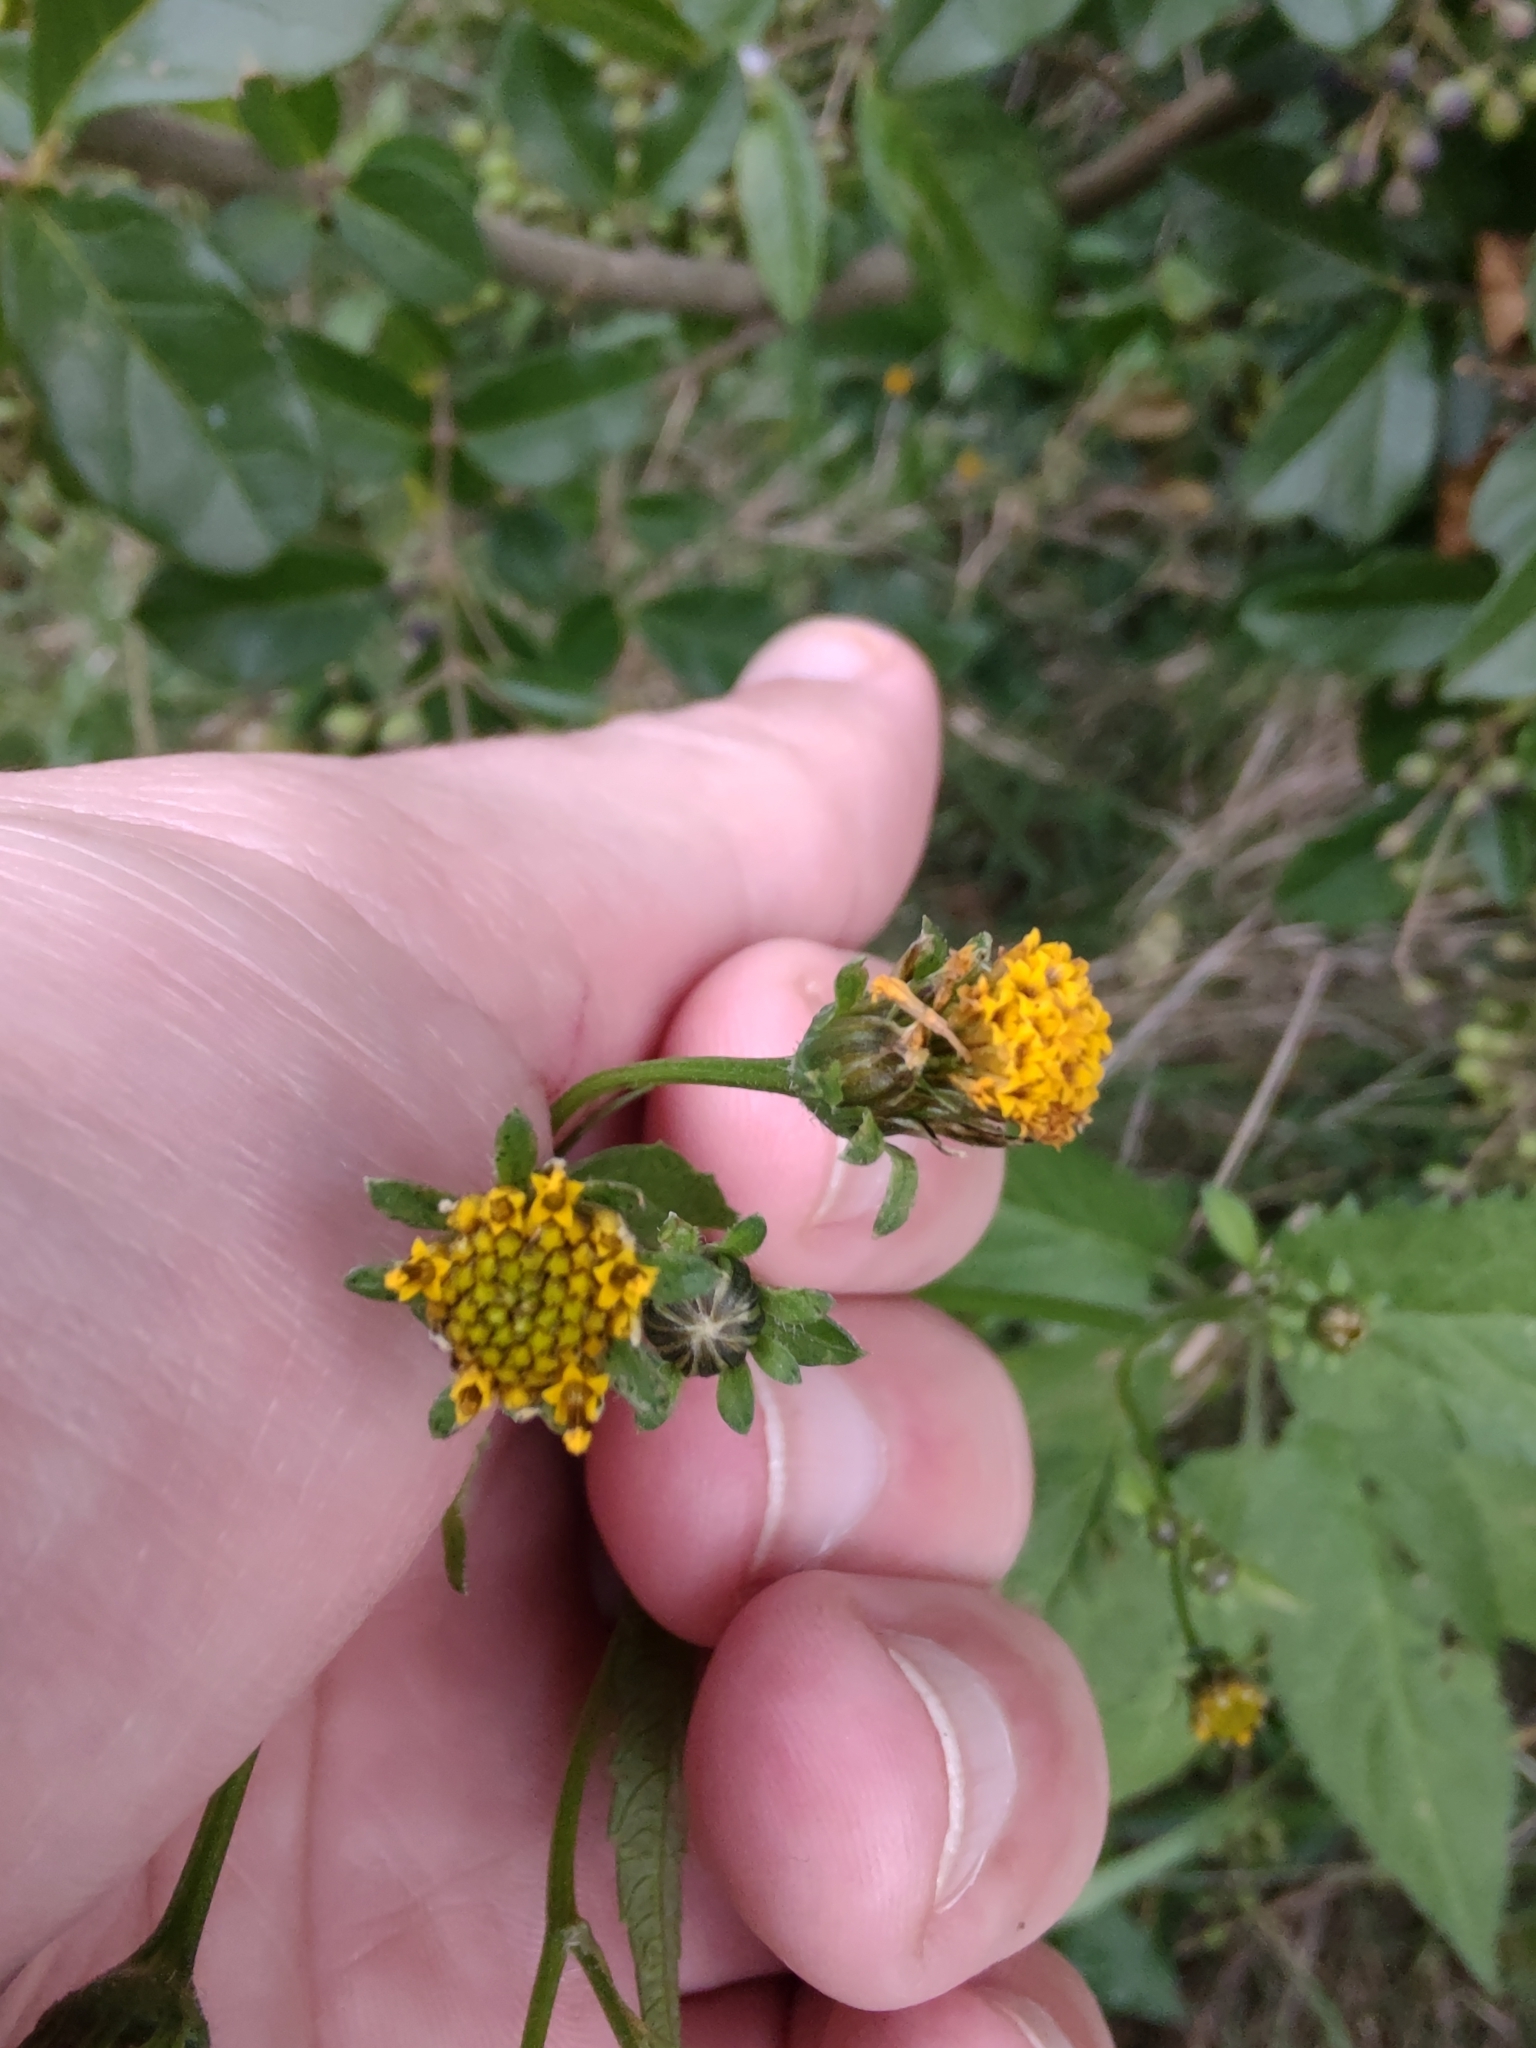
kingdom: Plantae
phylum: Tracheophyta
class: Magnoliopsida
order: Asterales
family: Asteraceae
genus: Bidens
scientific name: Bidens pilosa
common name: Black-jack
